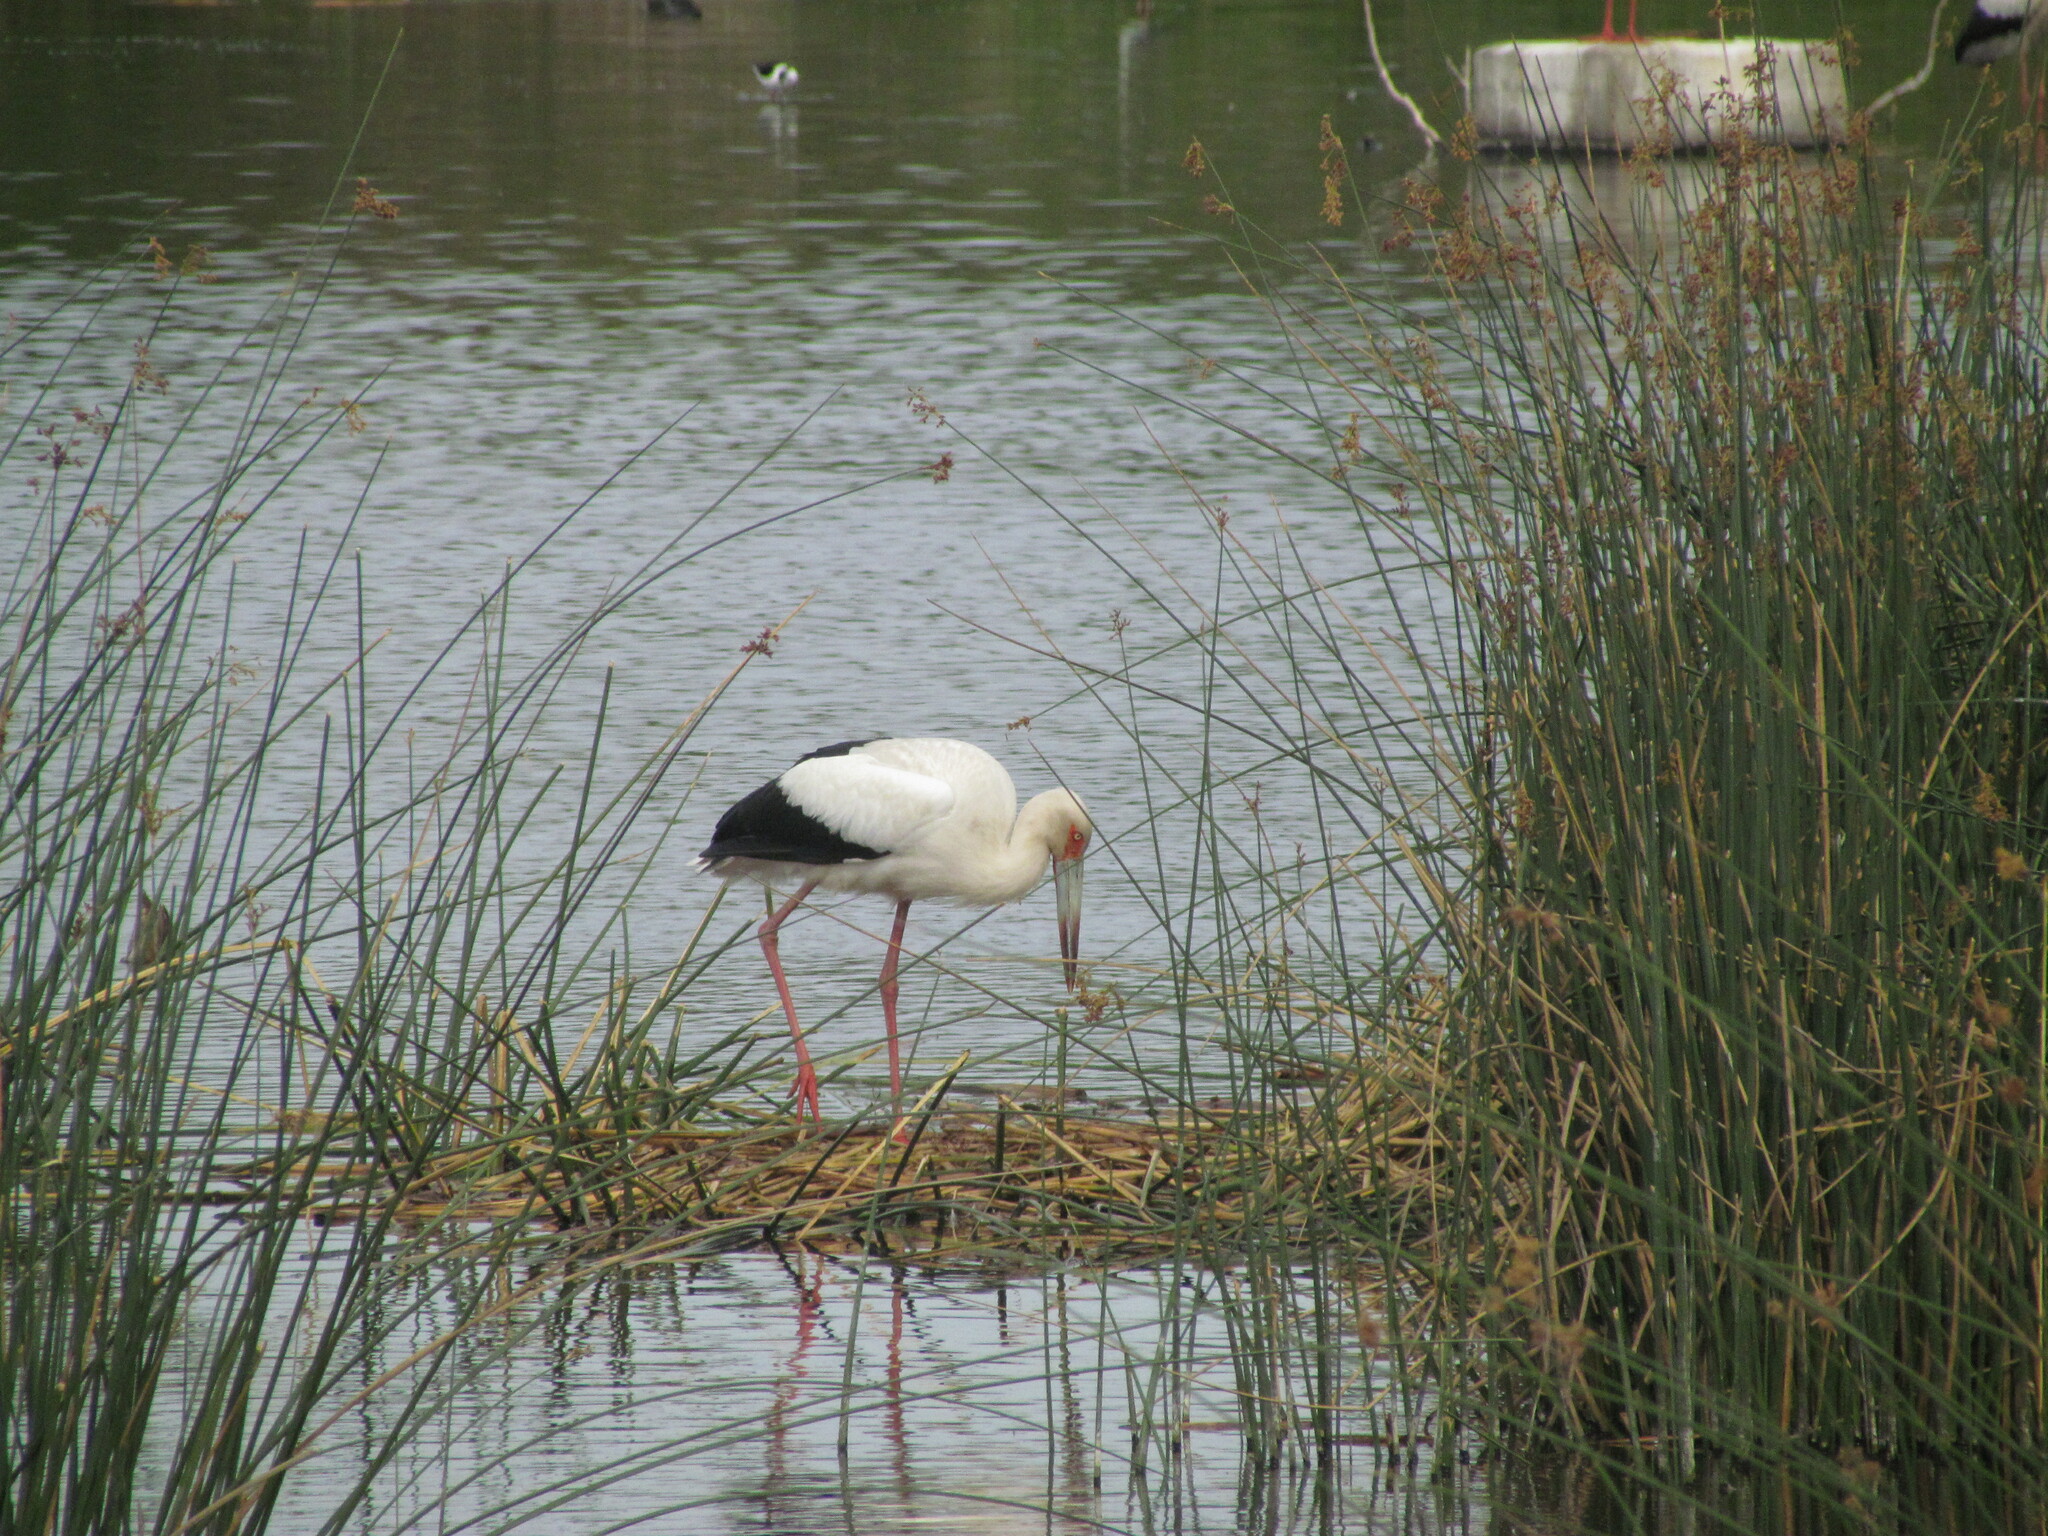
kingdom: Animalia
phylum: Chordata
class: Aves
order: Ciconiiformes
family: Ciconiidae
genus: Ciconia
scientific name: Ciconia maguari
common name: Maguari stork
